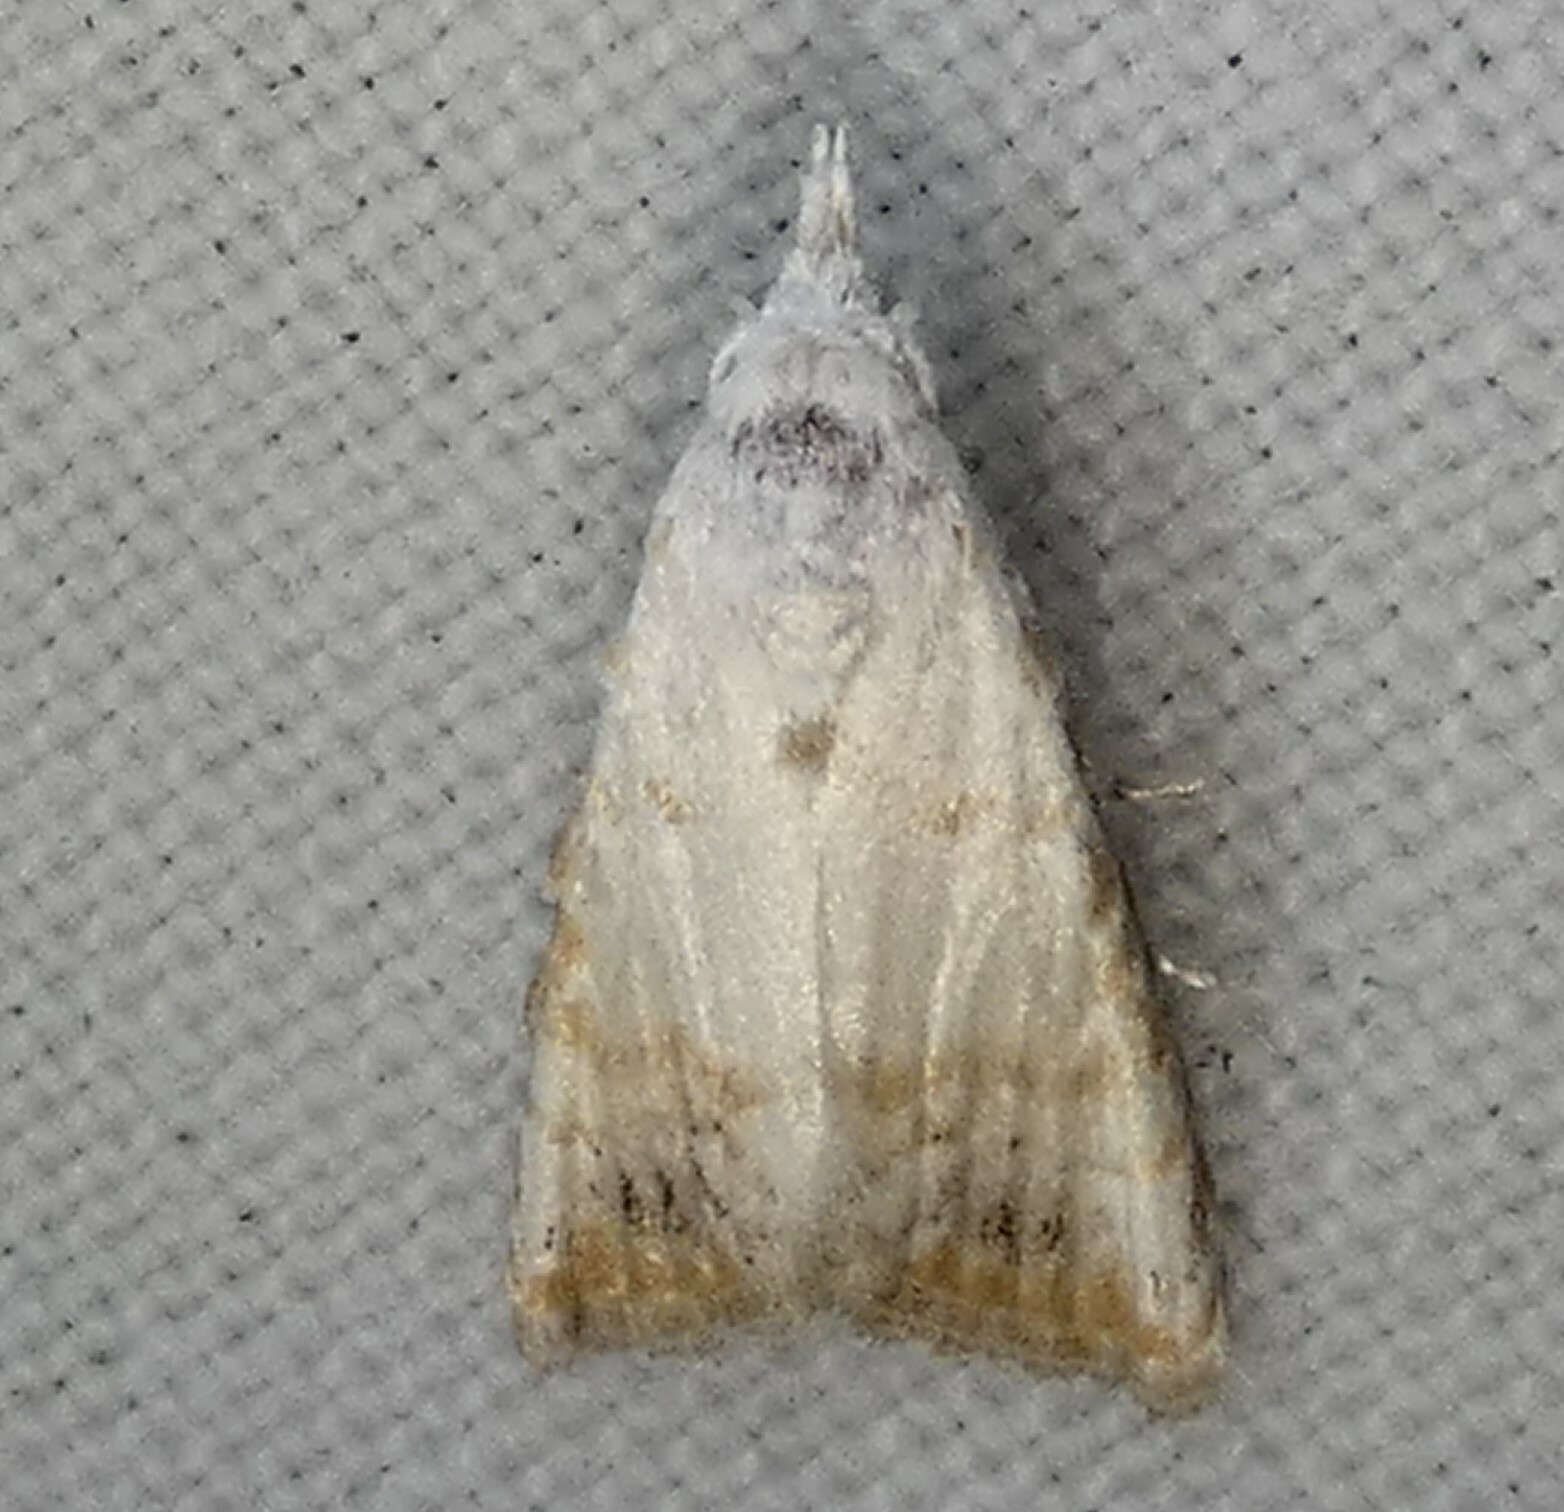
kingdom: Animalia
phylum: Arthropoda
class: Insecta
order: Lepidoptera
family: Nolidae
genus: Nola
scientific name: Nola cereella
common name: Sorghum webworm moth
